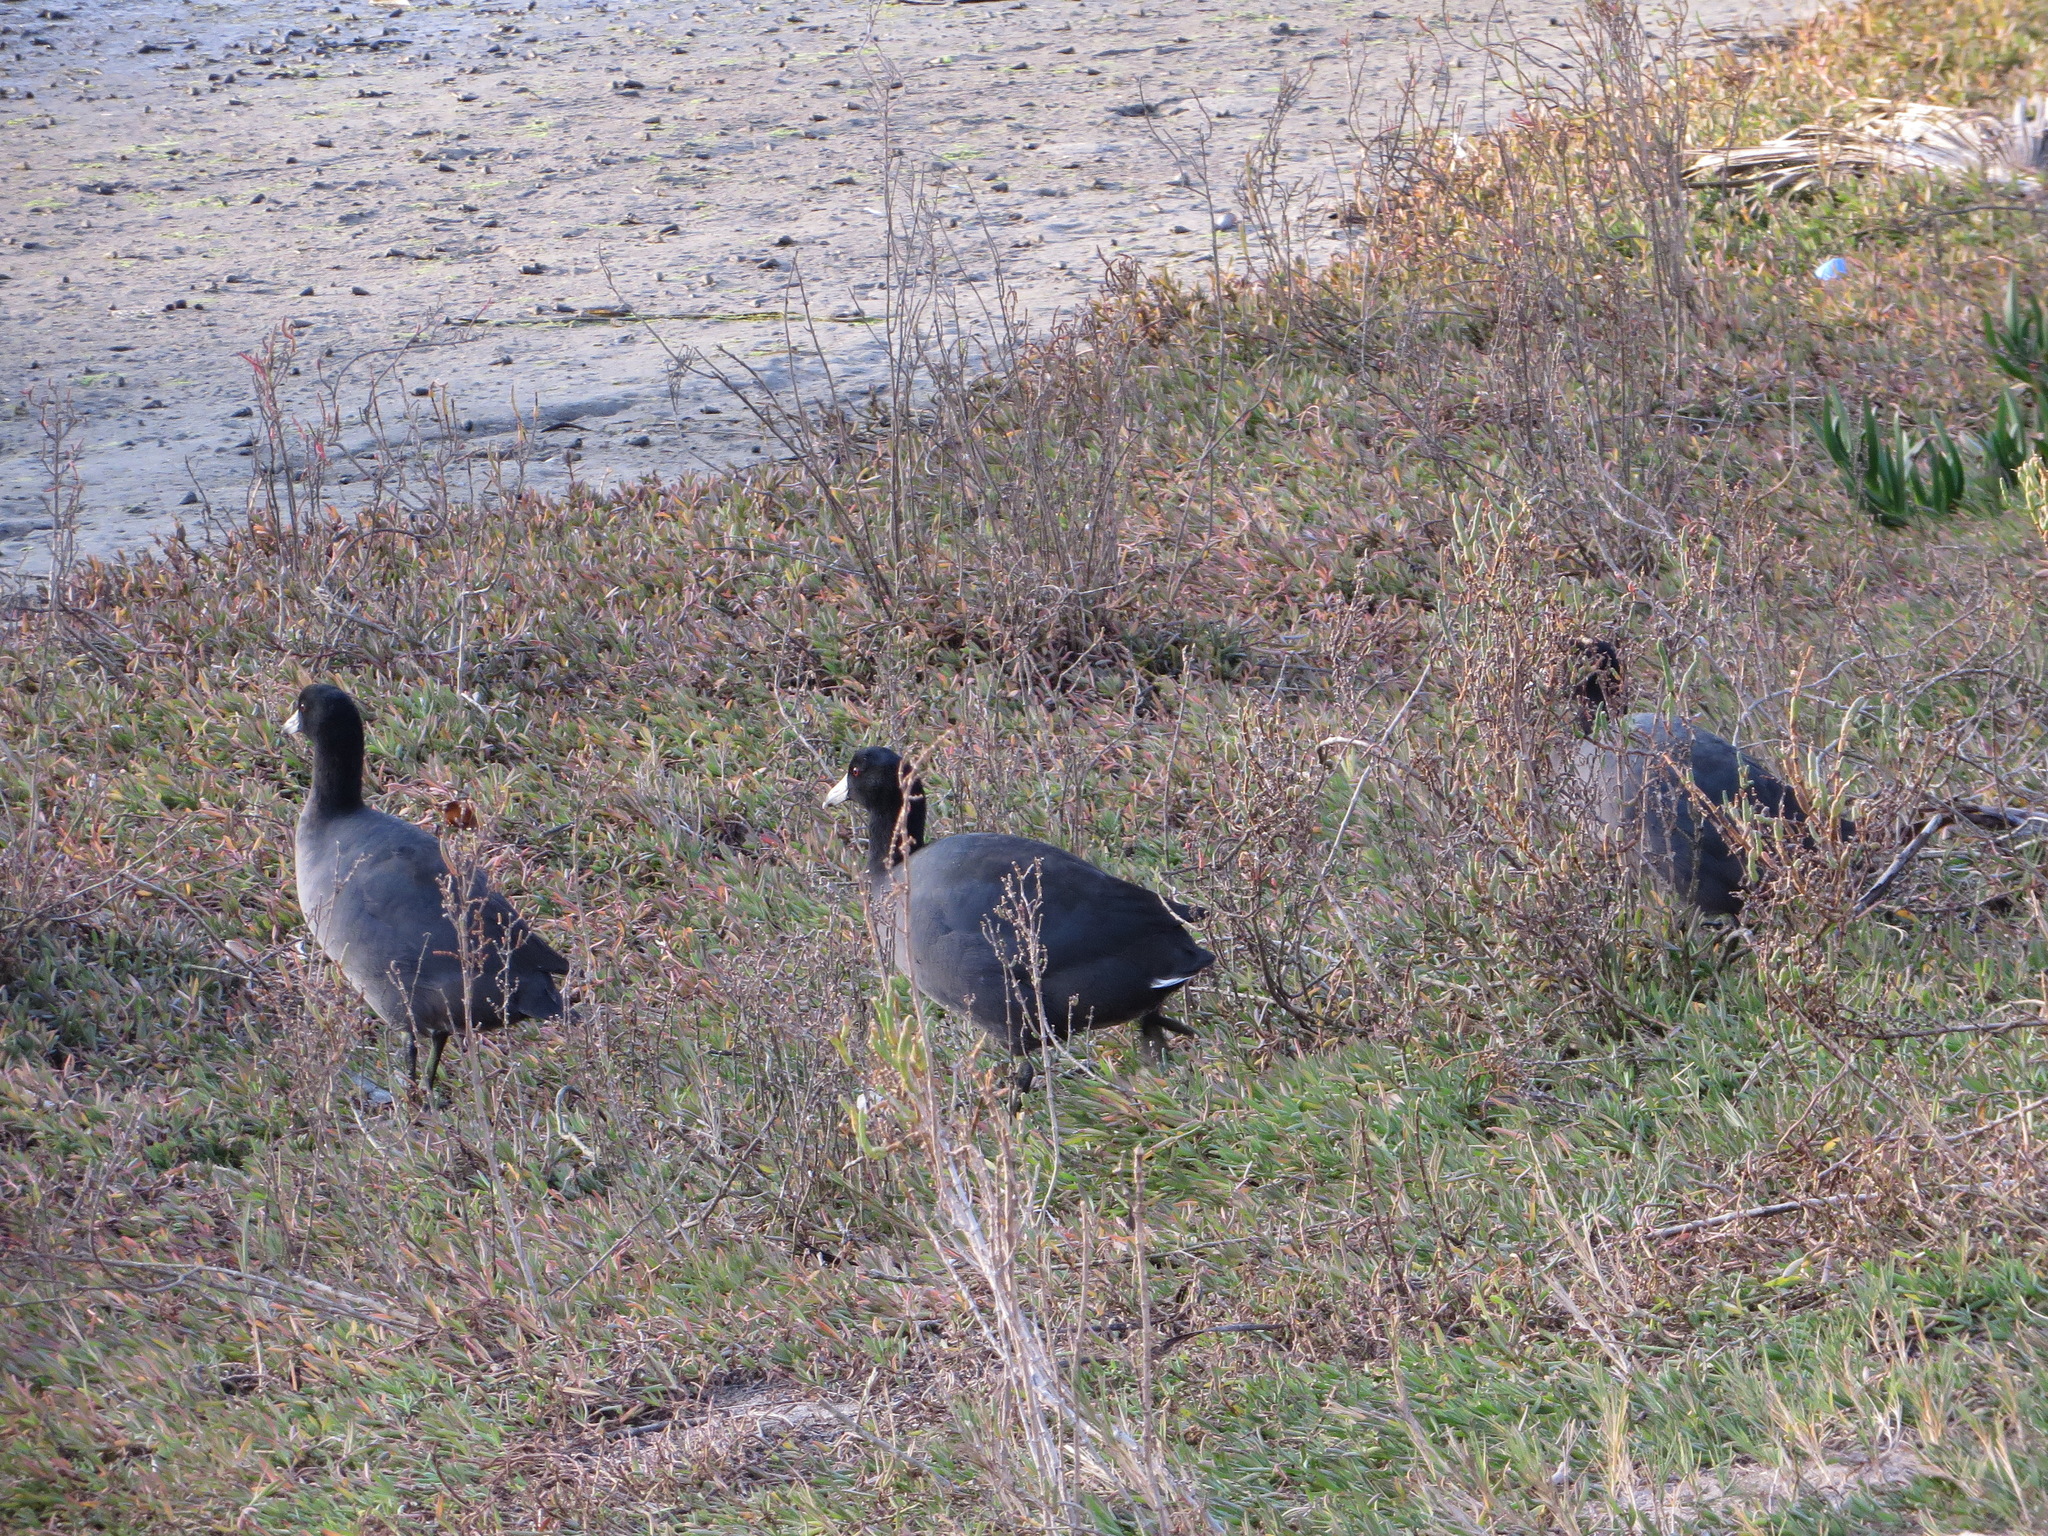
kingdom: Animalia
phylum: Chordata
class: Aves
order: Gruiformes
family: Rallidae
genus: Fulica
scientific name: Fulica americana
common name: American coot
